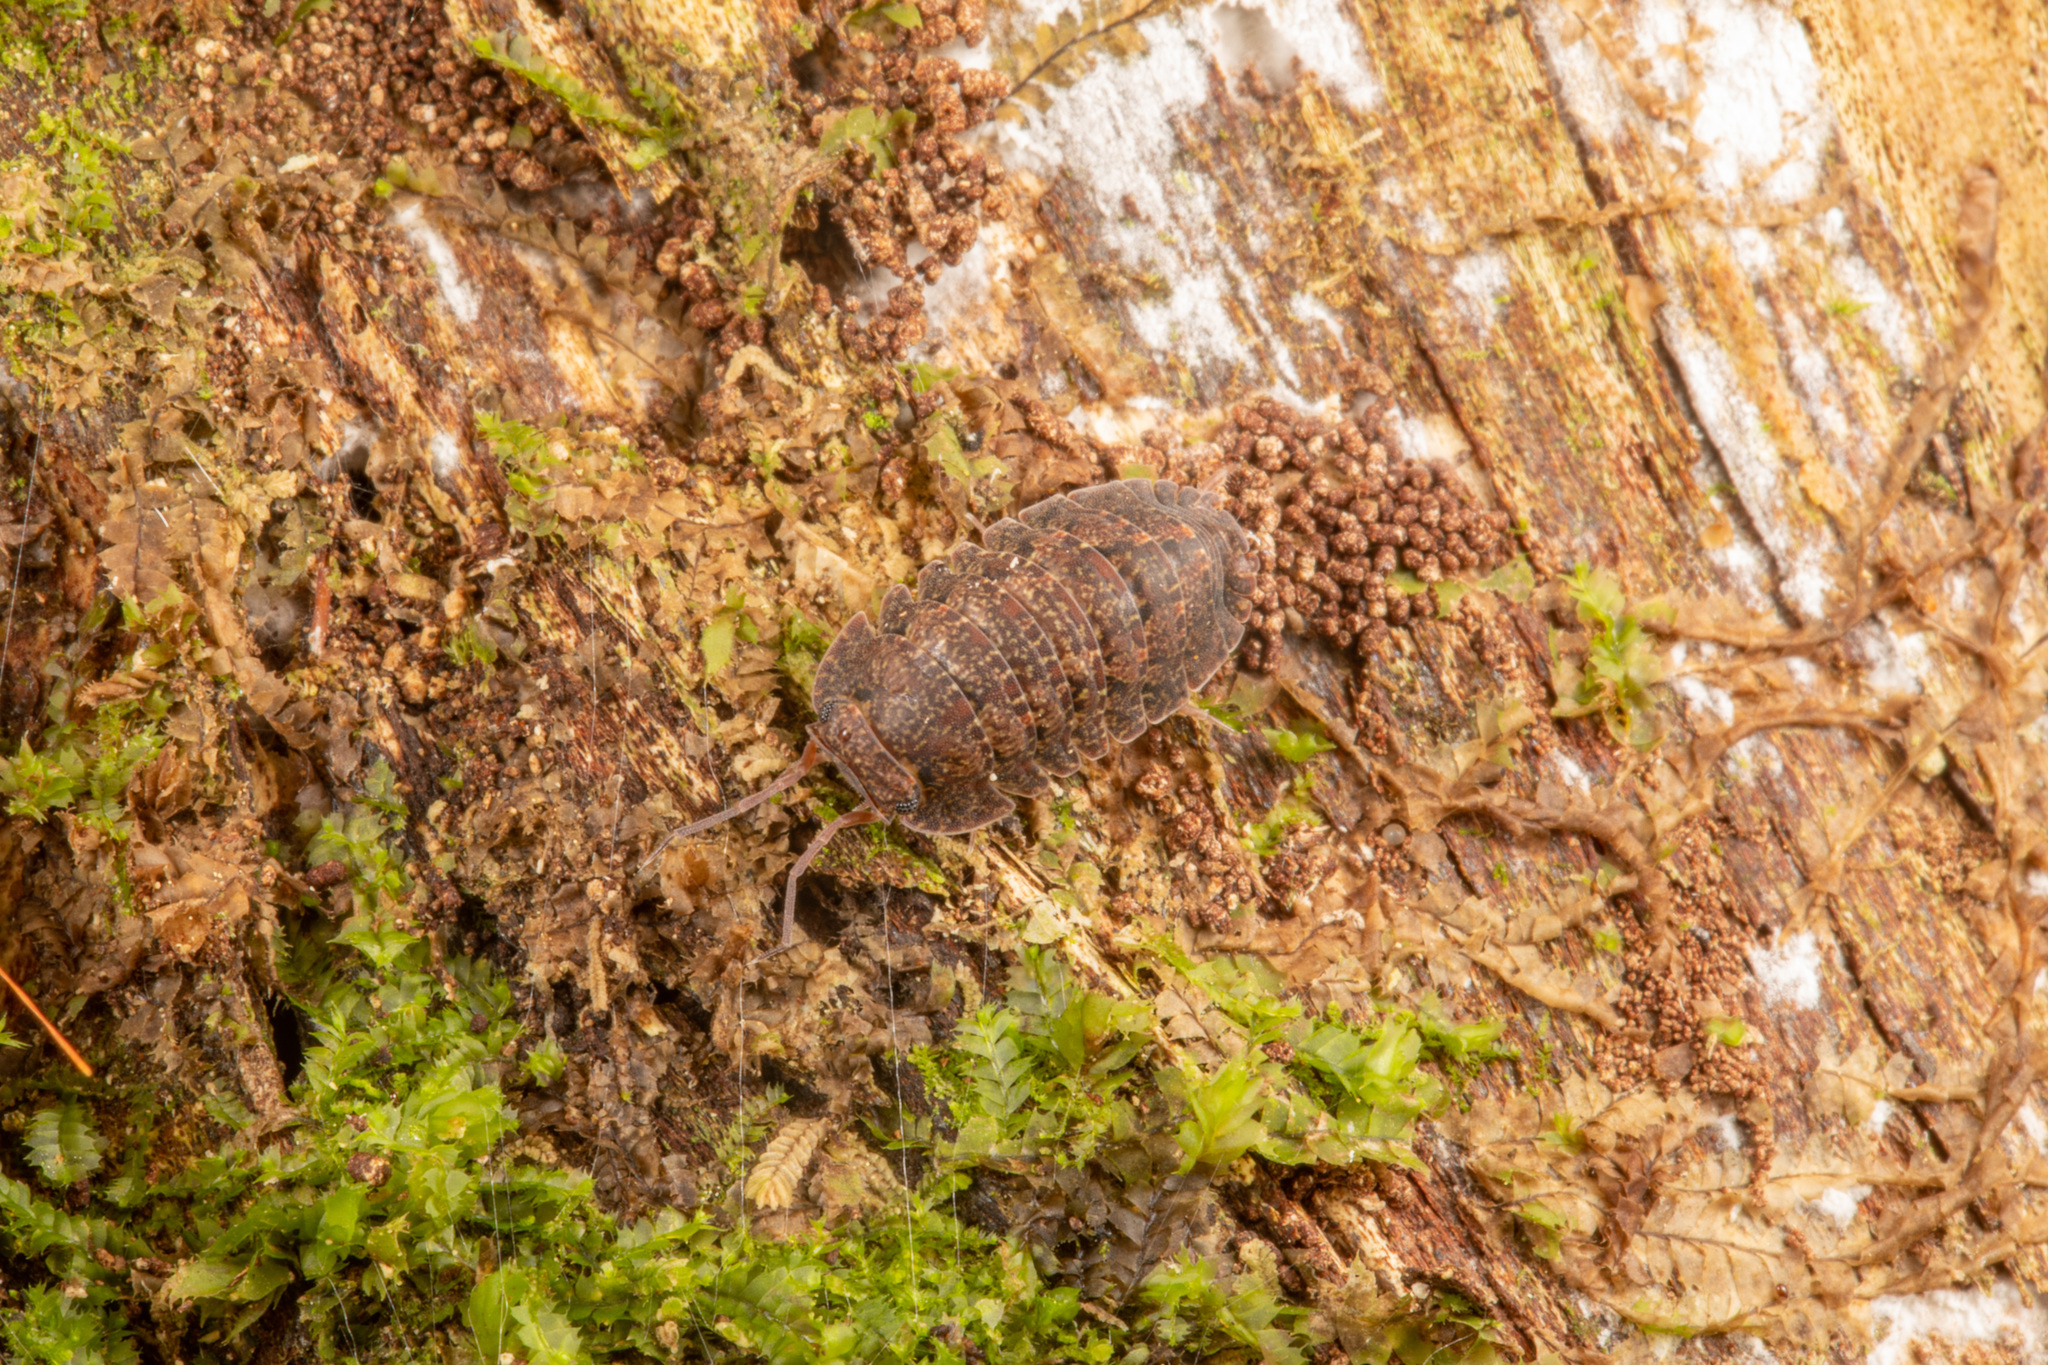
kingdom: Animalia
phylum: Arthropoda
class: Malacostraca
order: Isopoda
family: Armadillidae
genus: Cubaris
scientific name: Cubaris tarangensis
